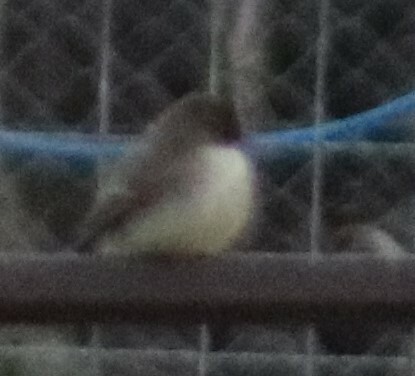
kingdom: Animalia
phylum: Chordata
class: Aves
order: Passeriformes
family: Tyrannidae
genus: Sayornis
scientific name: Sayornis phoebe
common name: Eastern phoebe
